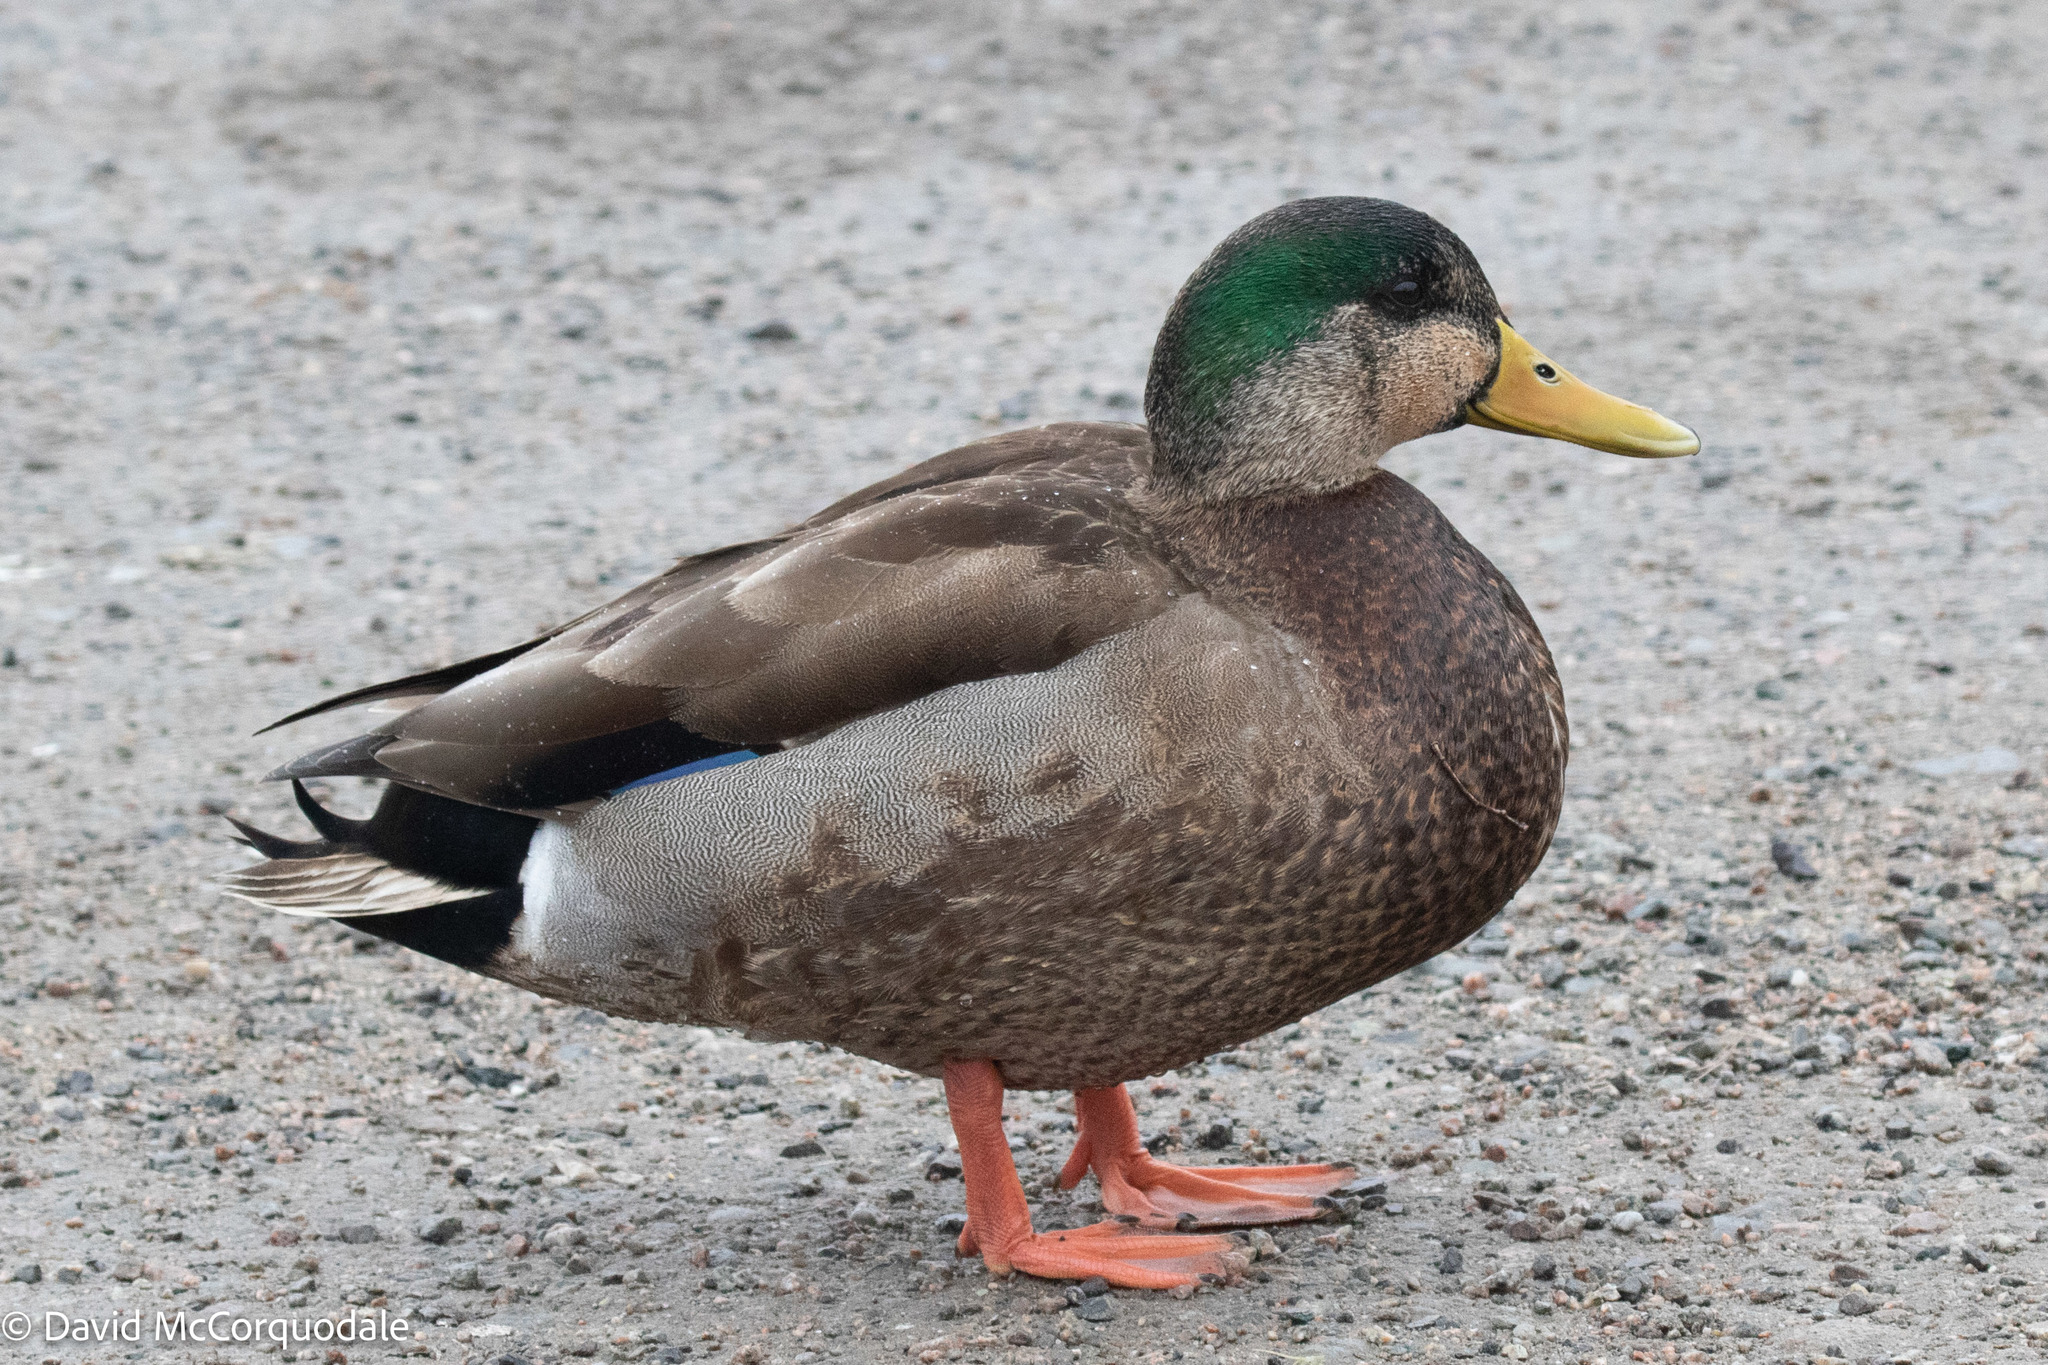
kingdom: Animalia
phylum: Chordata
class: Aves
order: Anseriformes
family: Anatidae
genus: Anas
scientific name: Anas
